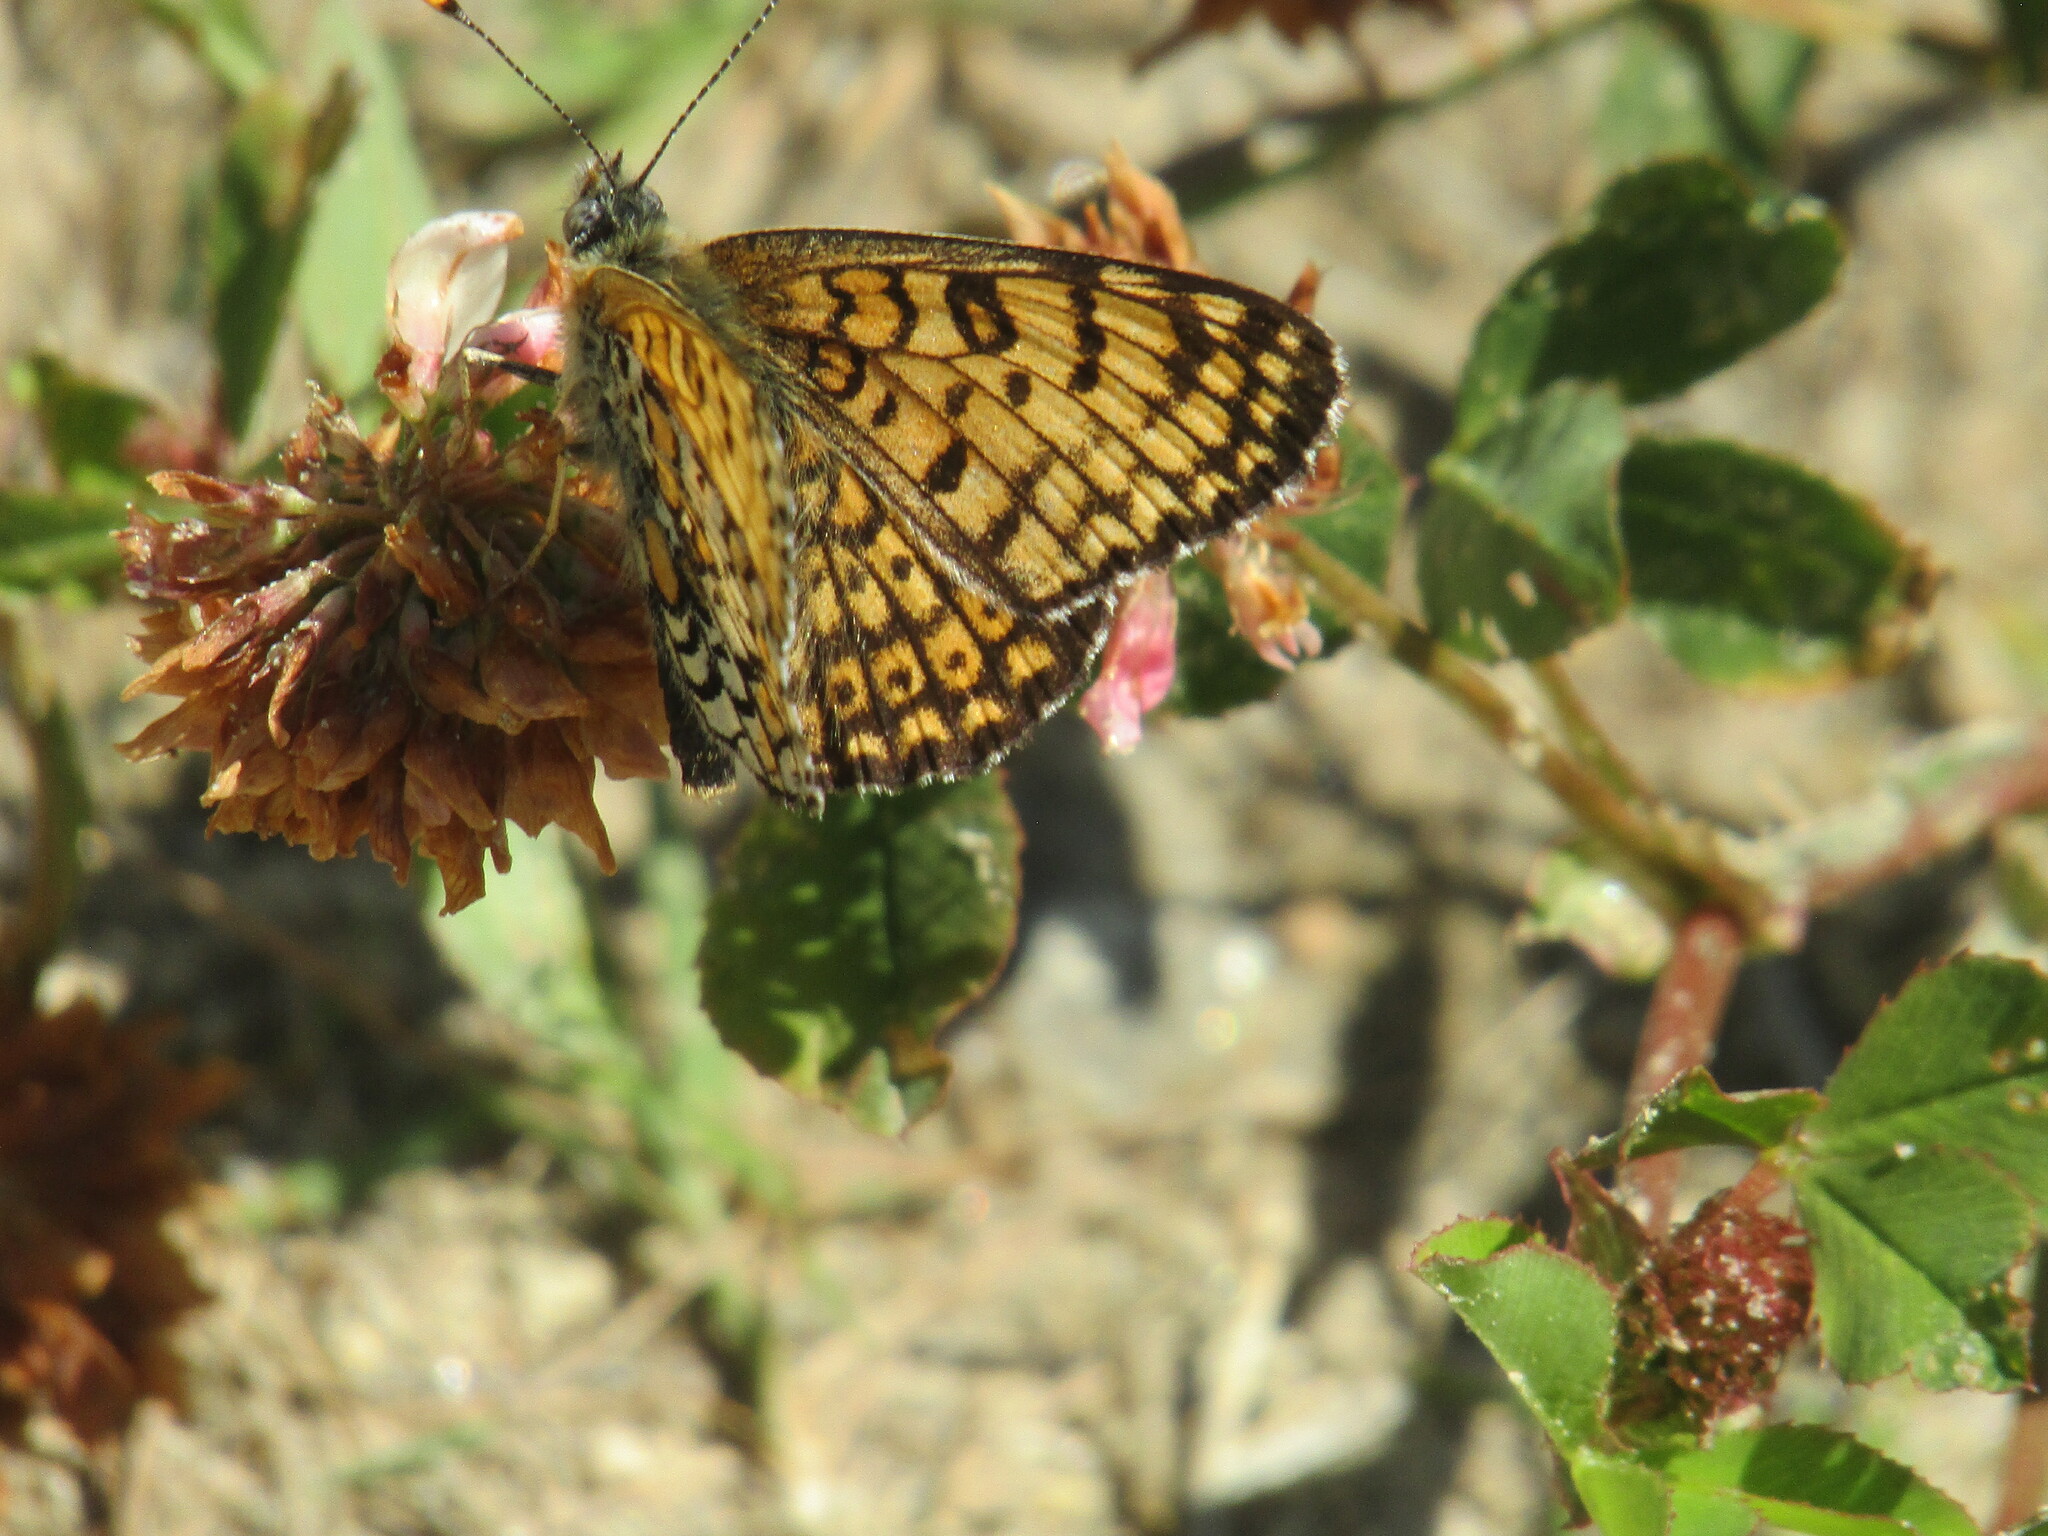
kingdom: Animalia
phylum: Arthropoda
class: Insecta
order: Lepidoptera
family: Nymphalidae
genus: Melitaea
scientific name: Melitaea cinxia
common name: Glanville fritillary
